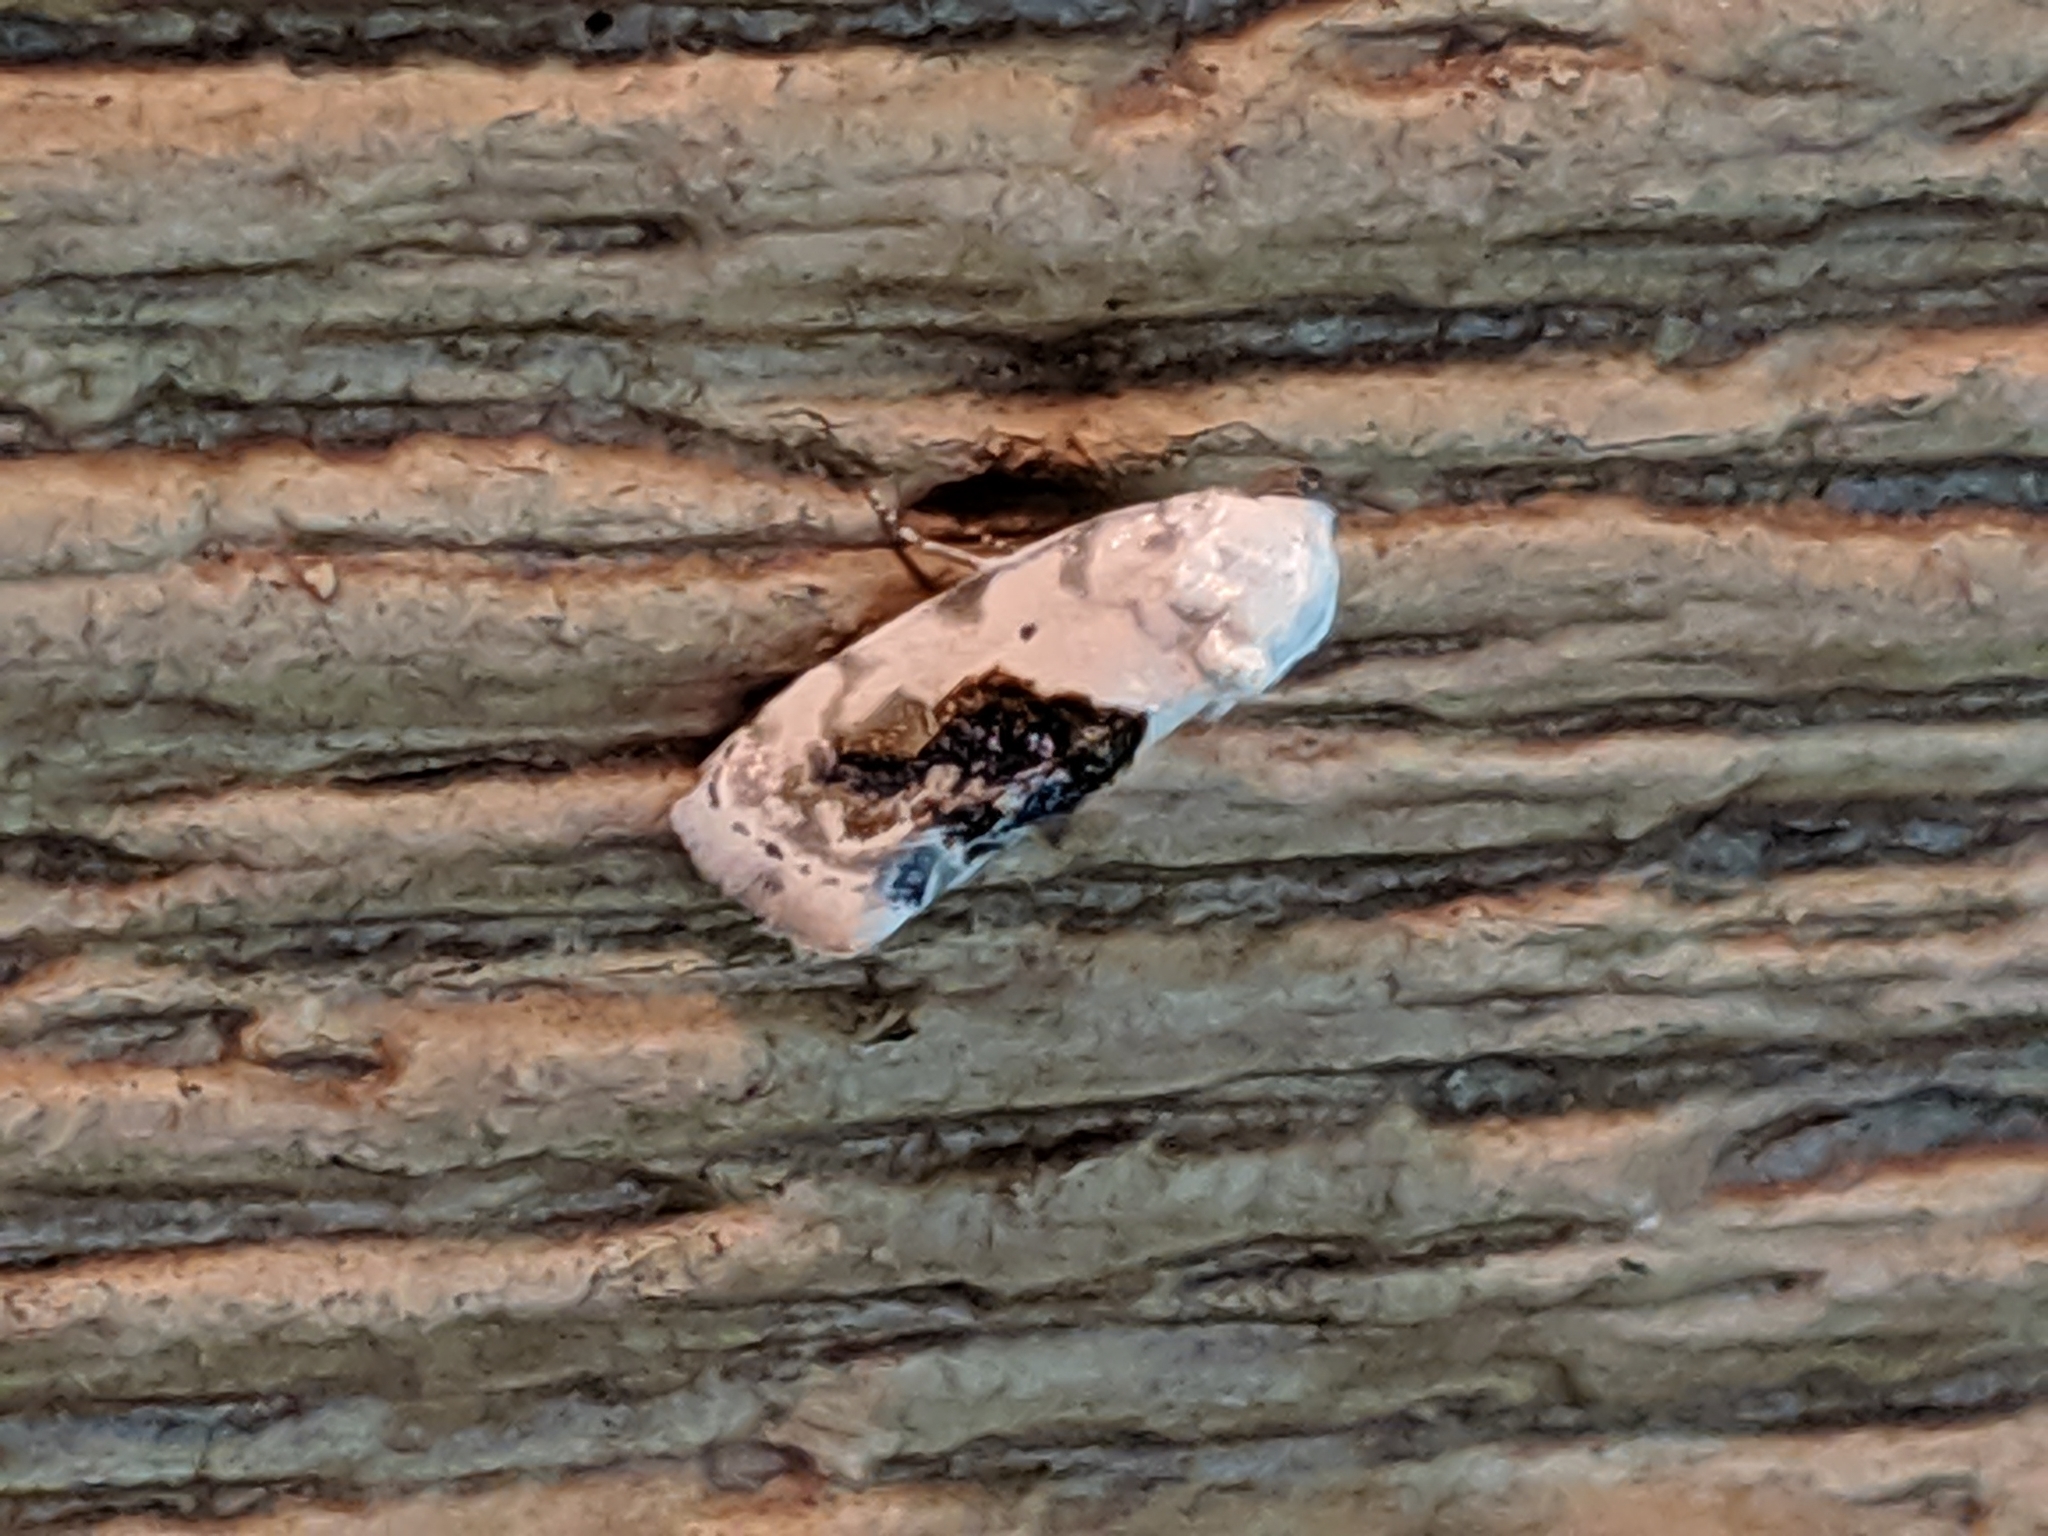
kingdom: Animalia
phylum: Arthropoda
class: Insecta
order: Lepidoptera
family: Noctuidae
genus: Acontia
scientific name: Acontia erastrioides
